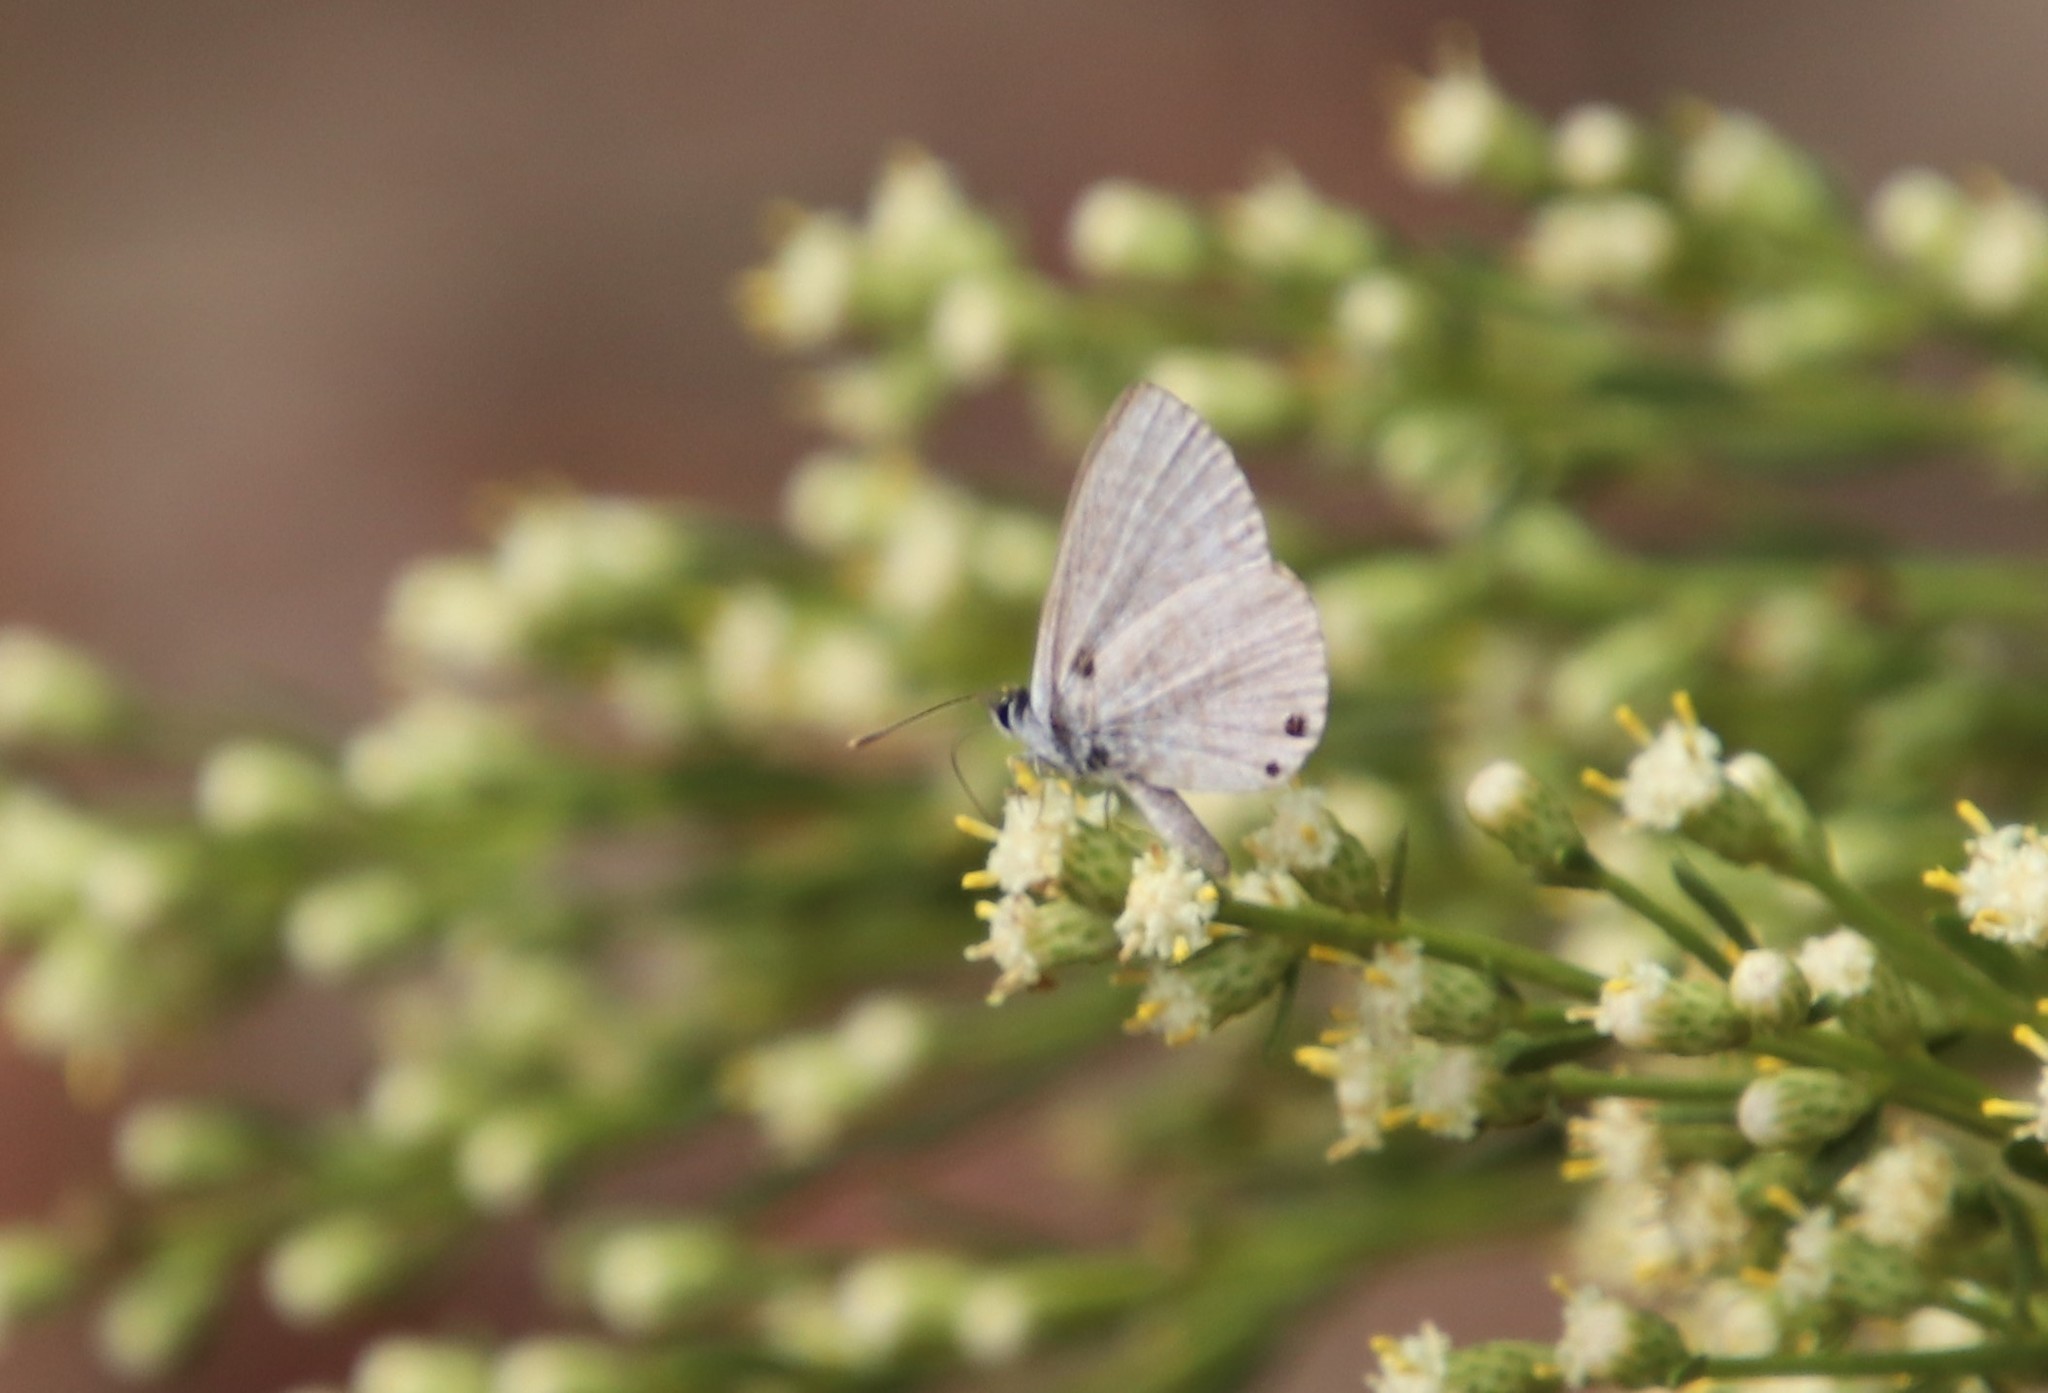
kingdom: Animalia
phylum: Arthropoda
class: Insecta
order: Lepidoptera
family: Lycaenidae
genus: Leptotes
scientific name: Leptotes marina
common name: Marine blue
